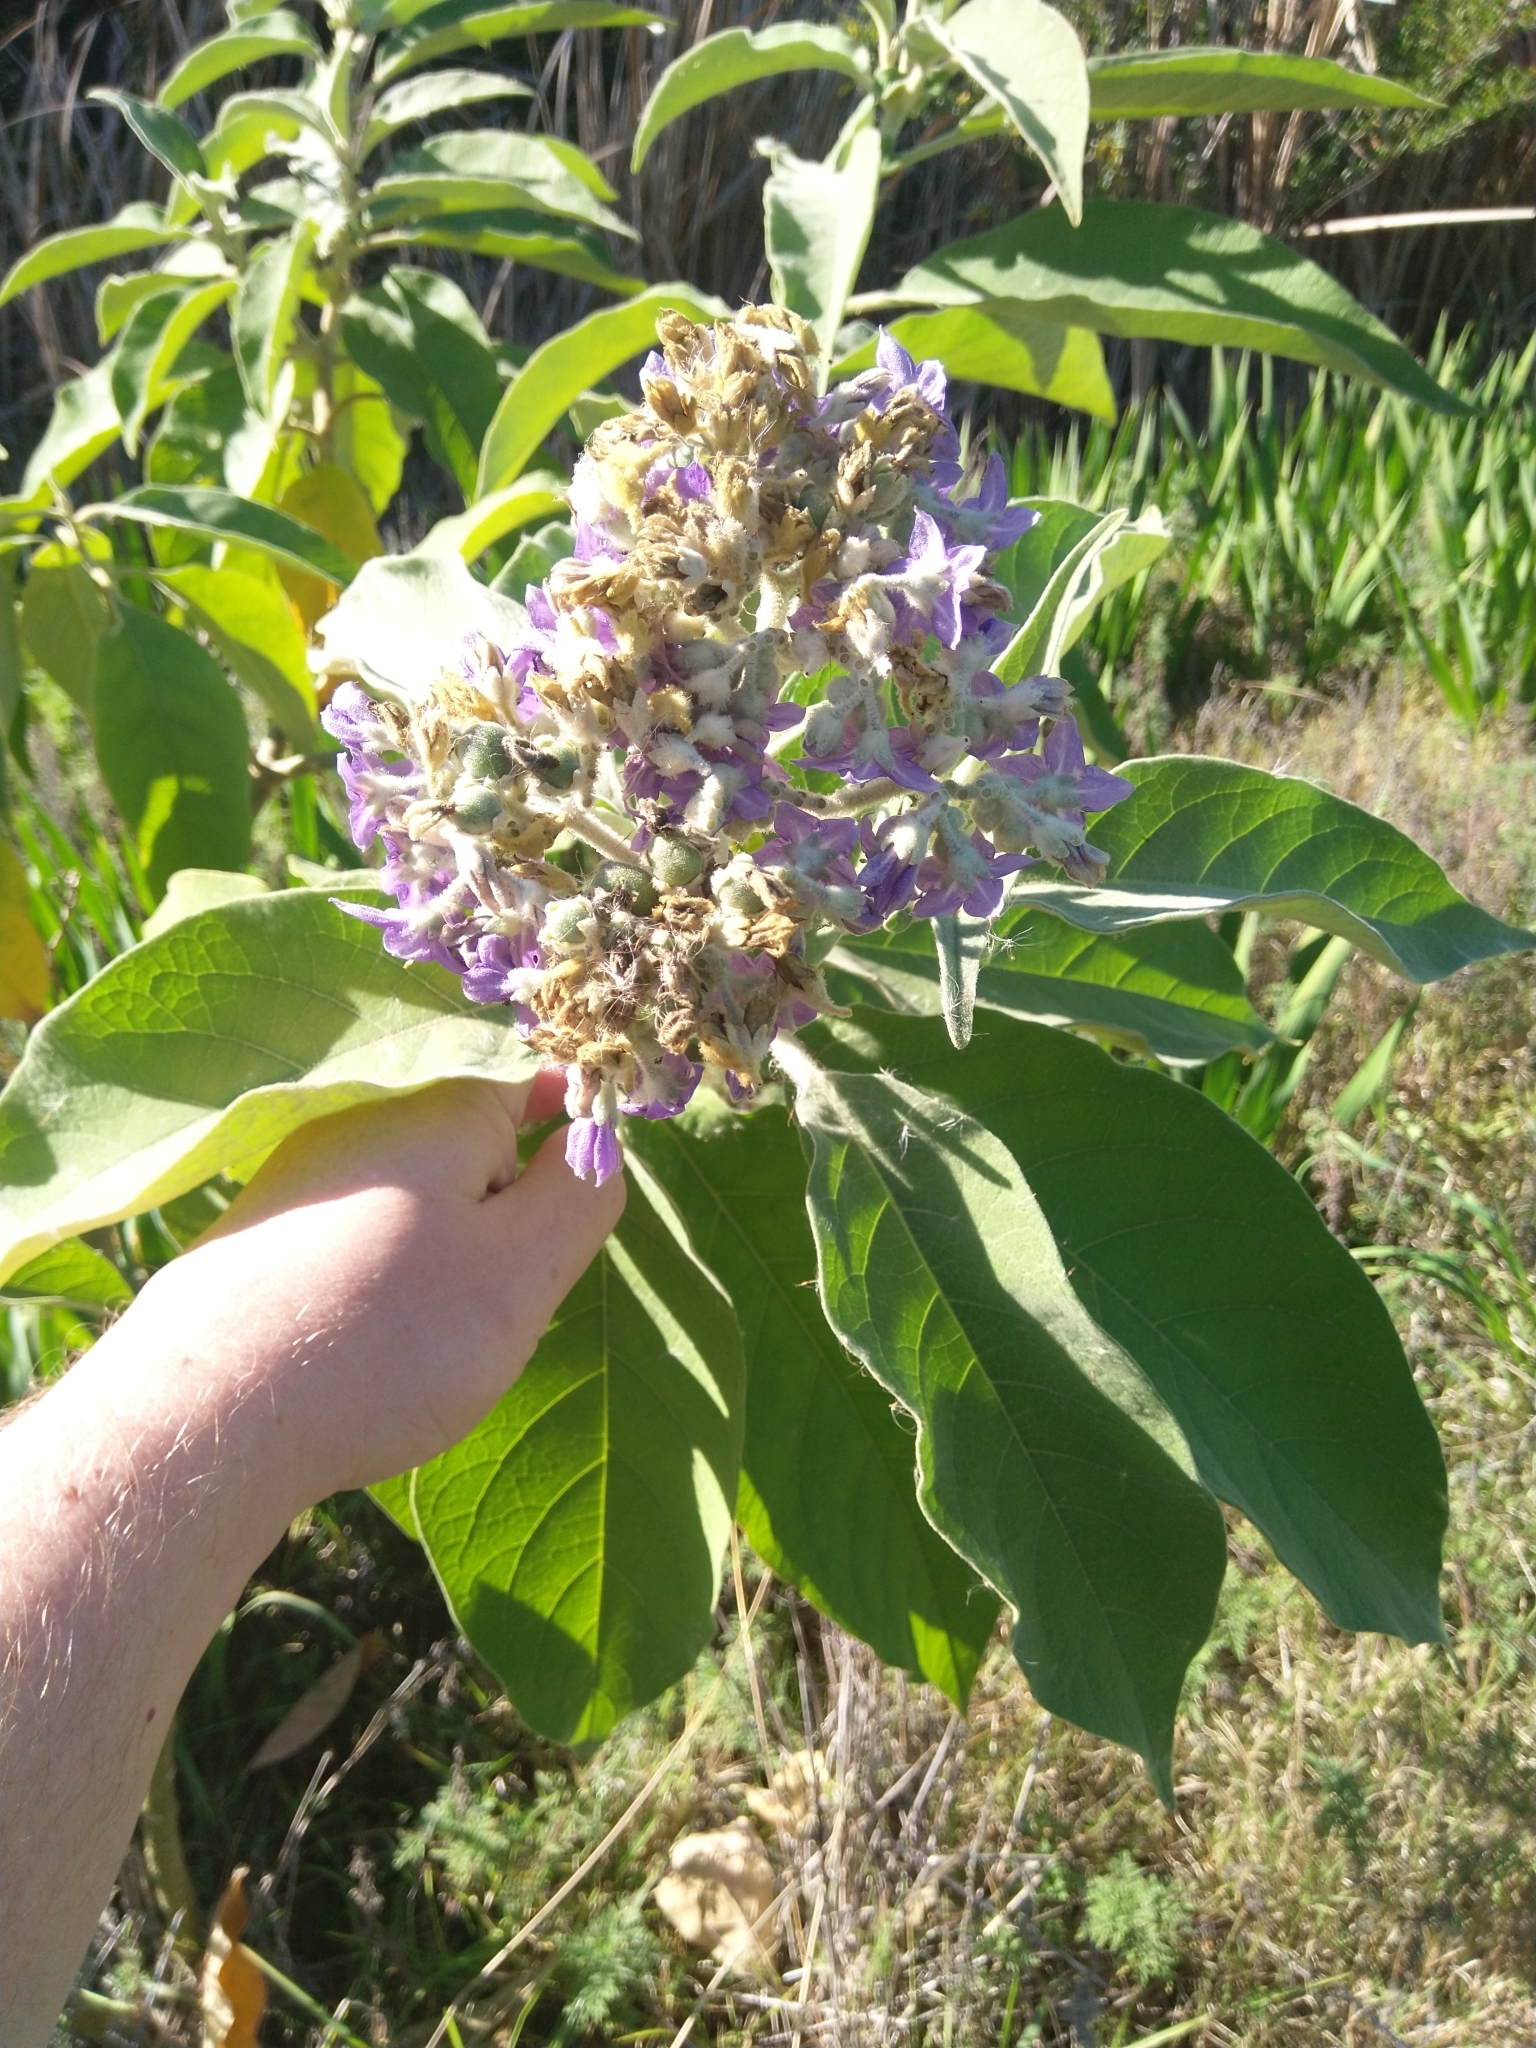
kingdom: Plantae
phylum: Tracheophyta
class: Magnoliopsida
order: Solanales
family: Solanaceae
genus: Solanum
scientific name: Solanum mauritianum
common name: Earleaf nightshade
